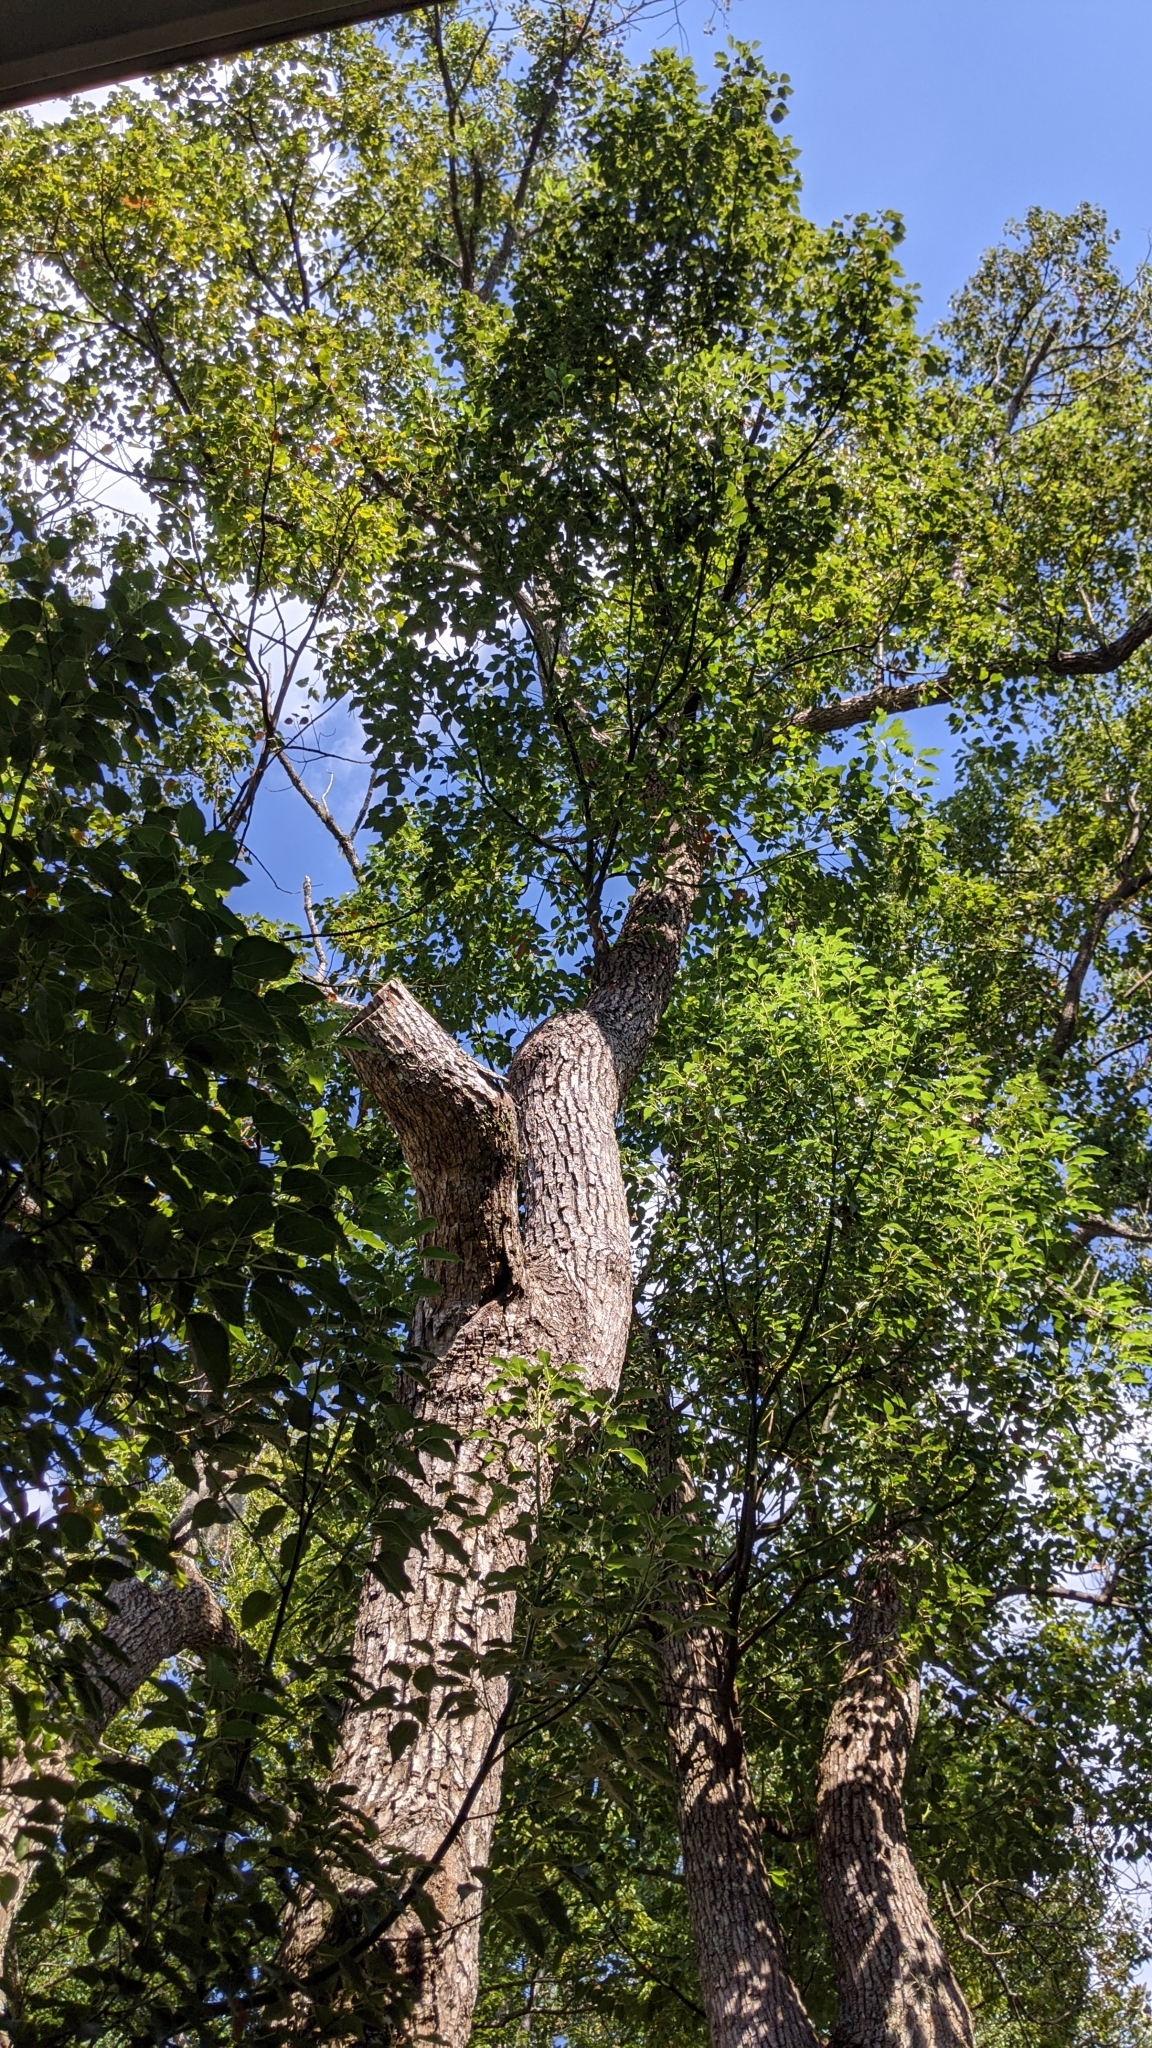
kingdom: Plantae
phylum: Tracheophyta
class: Magnoliopsida
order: Laurales
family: Lauraceae
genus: Cinnamomum
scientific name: Cinnamomum camphora
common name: Camphortree
